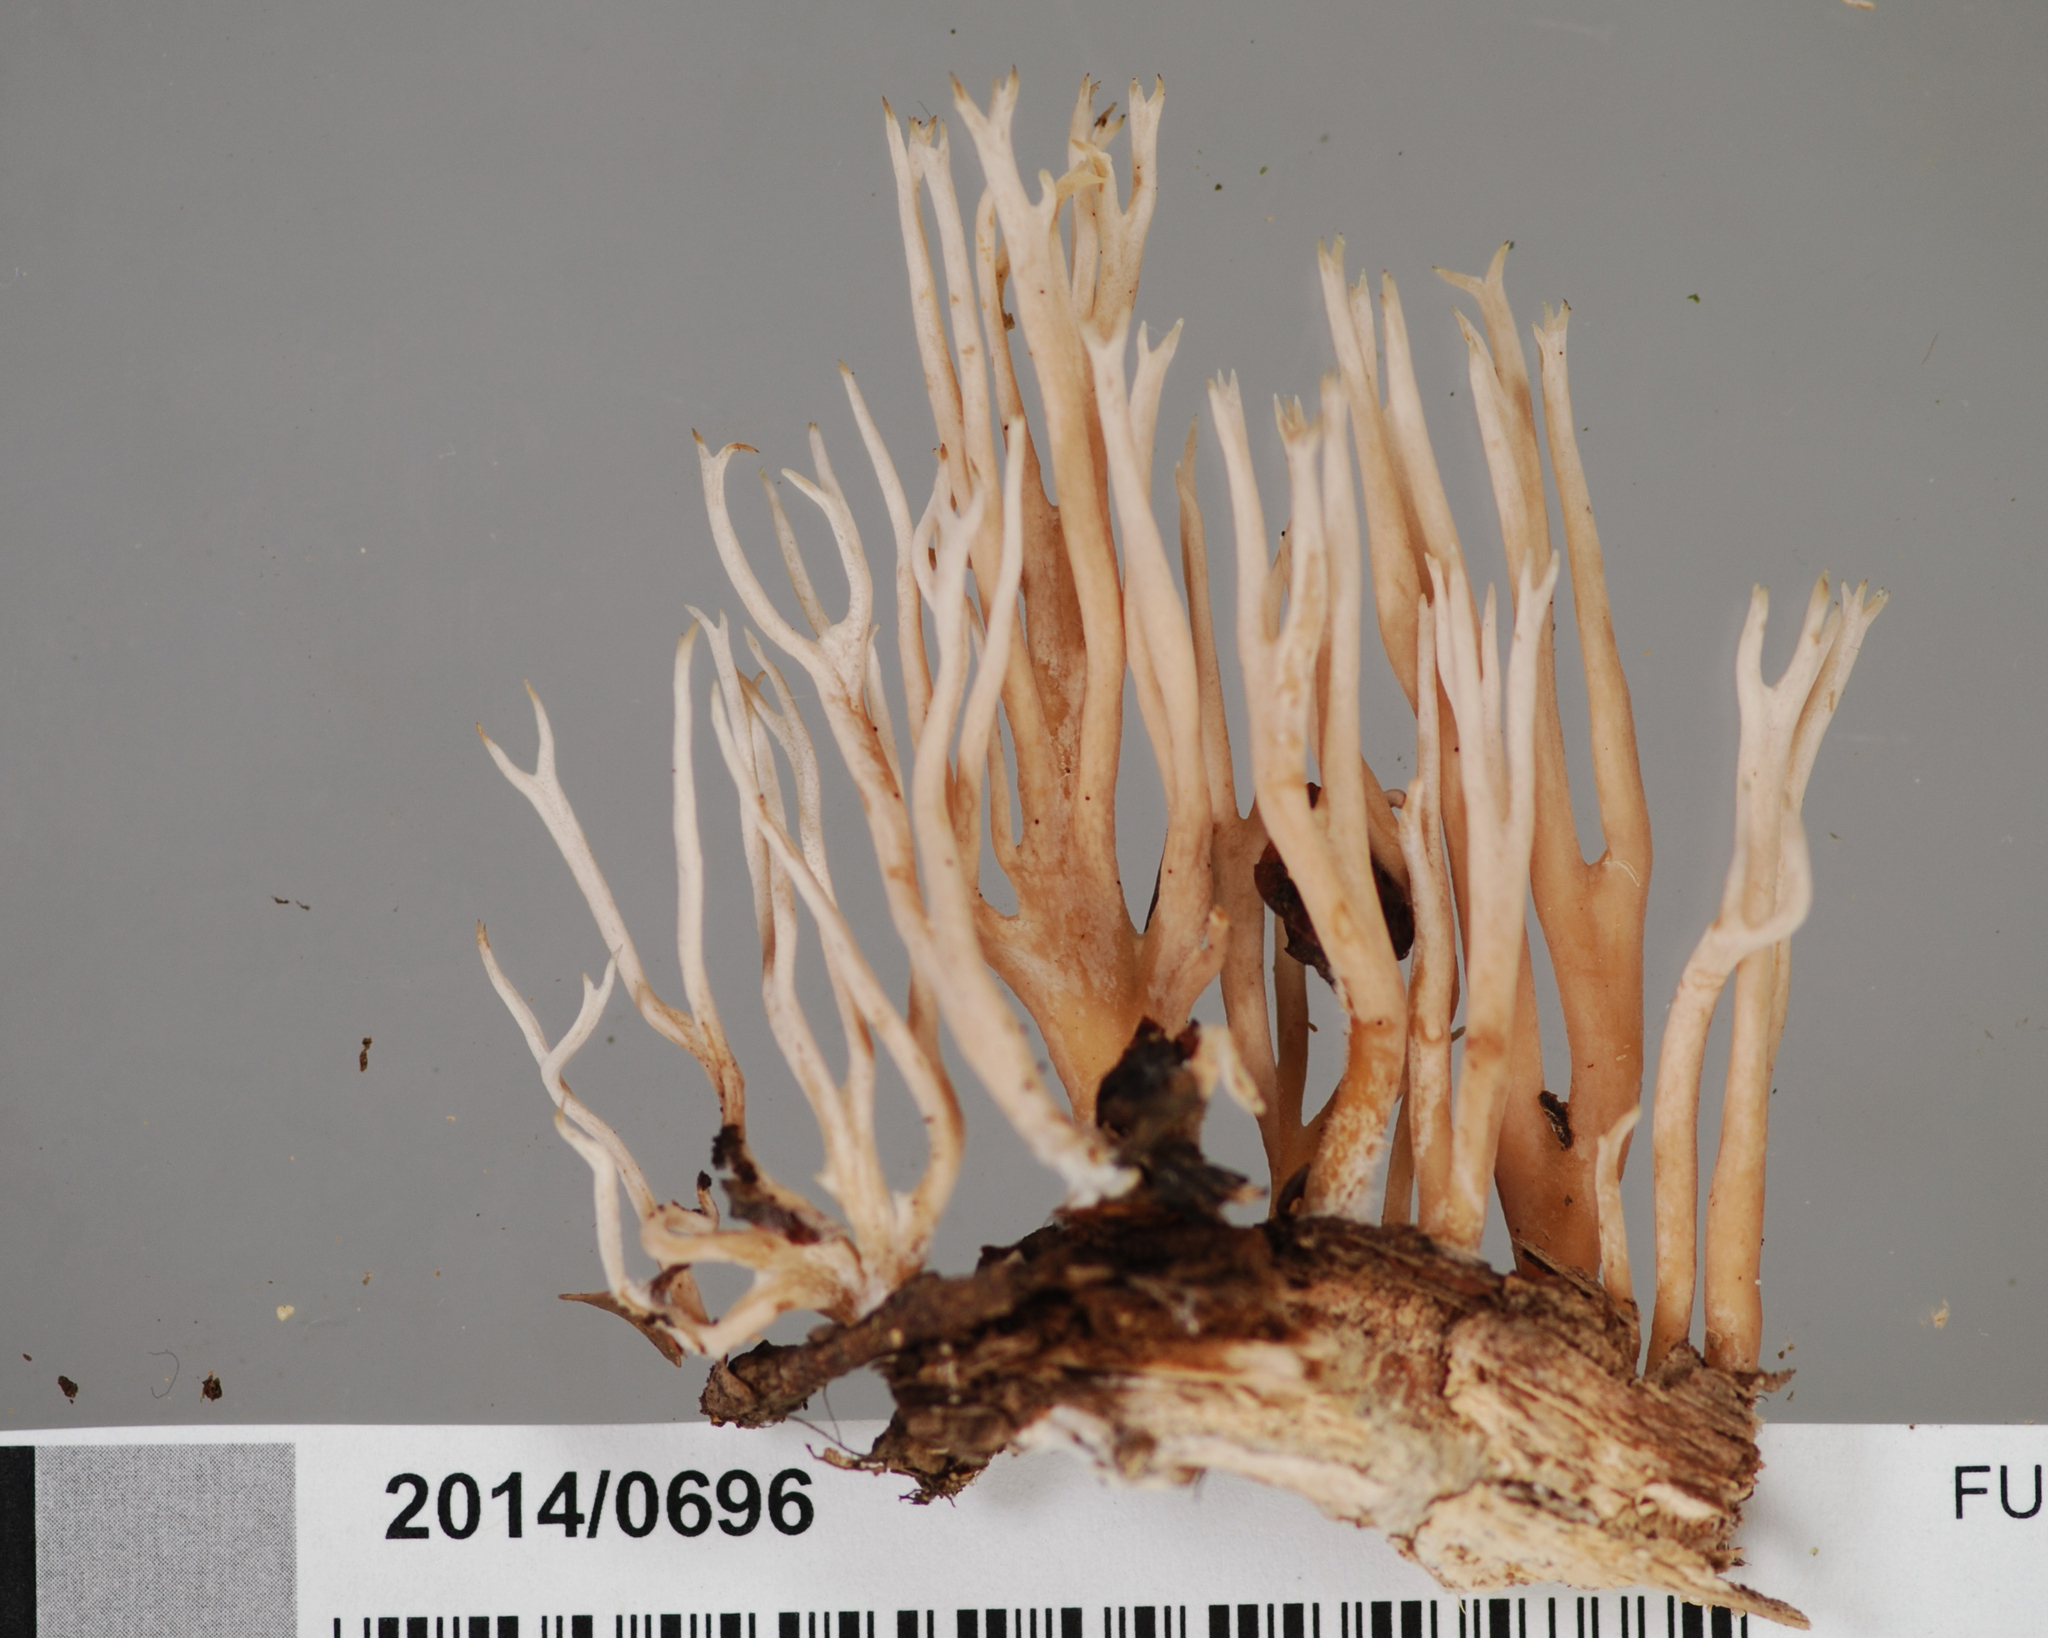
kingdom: Fungi
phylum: Basidiomycota
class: Agaricomycetes
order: Gomphales
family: Lentariaceae
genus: Lentaria
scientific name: Lentaria boletosporioides
